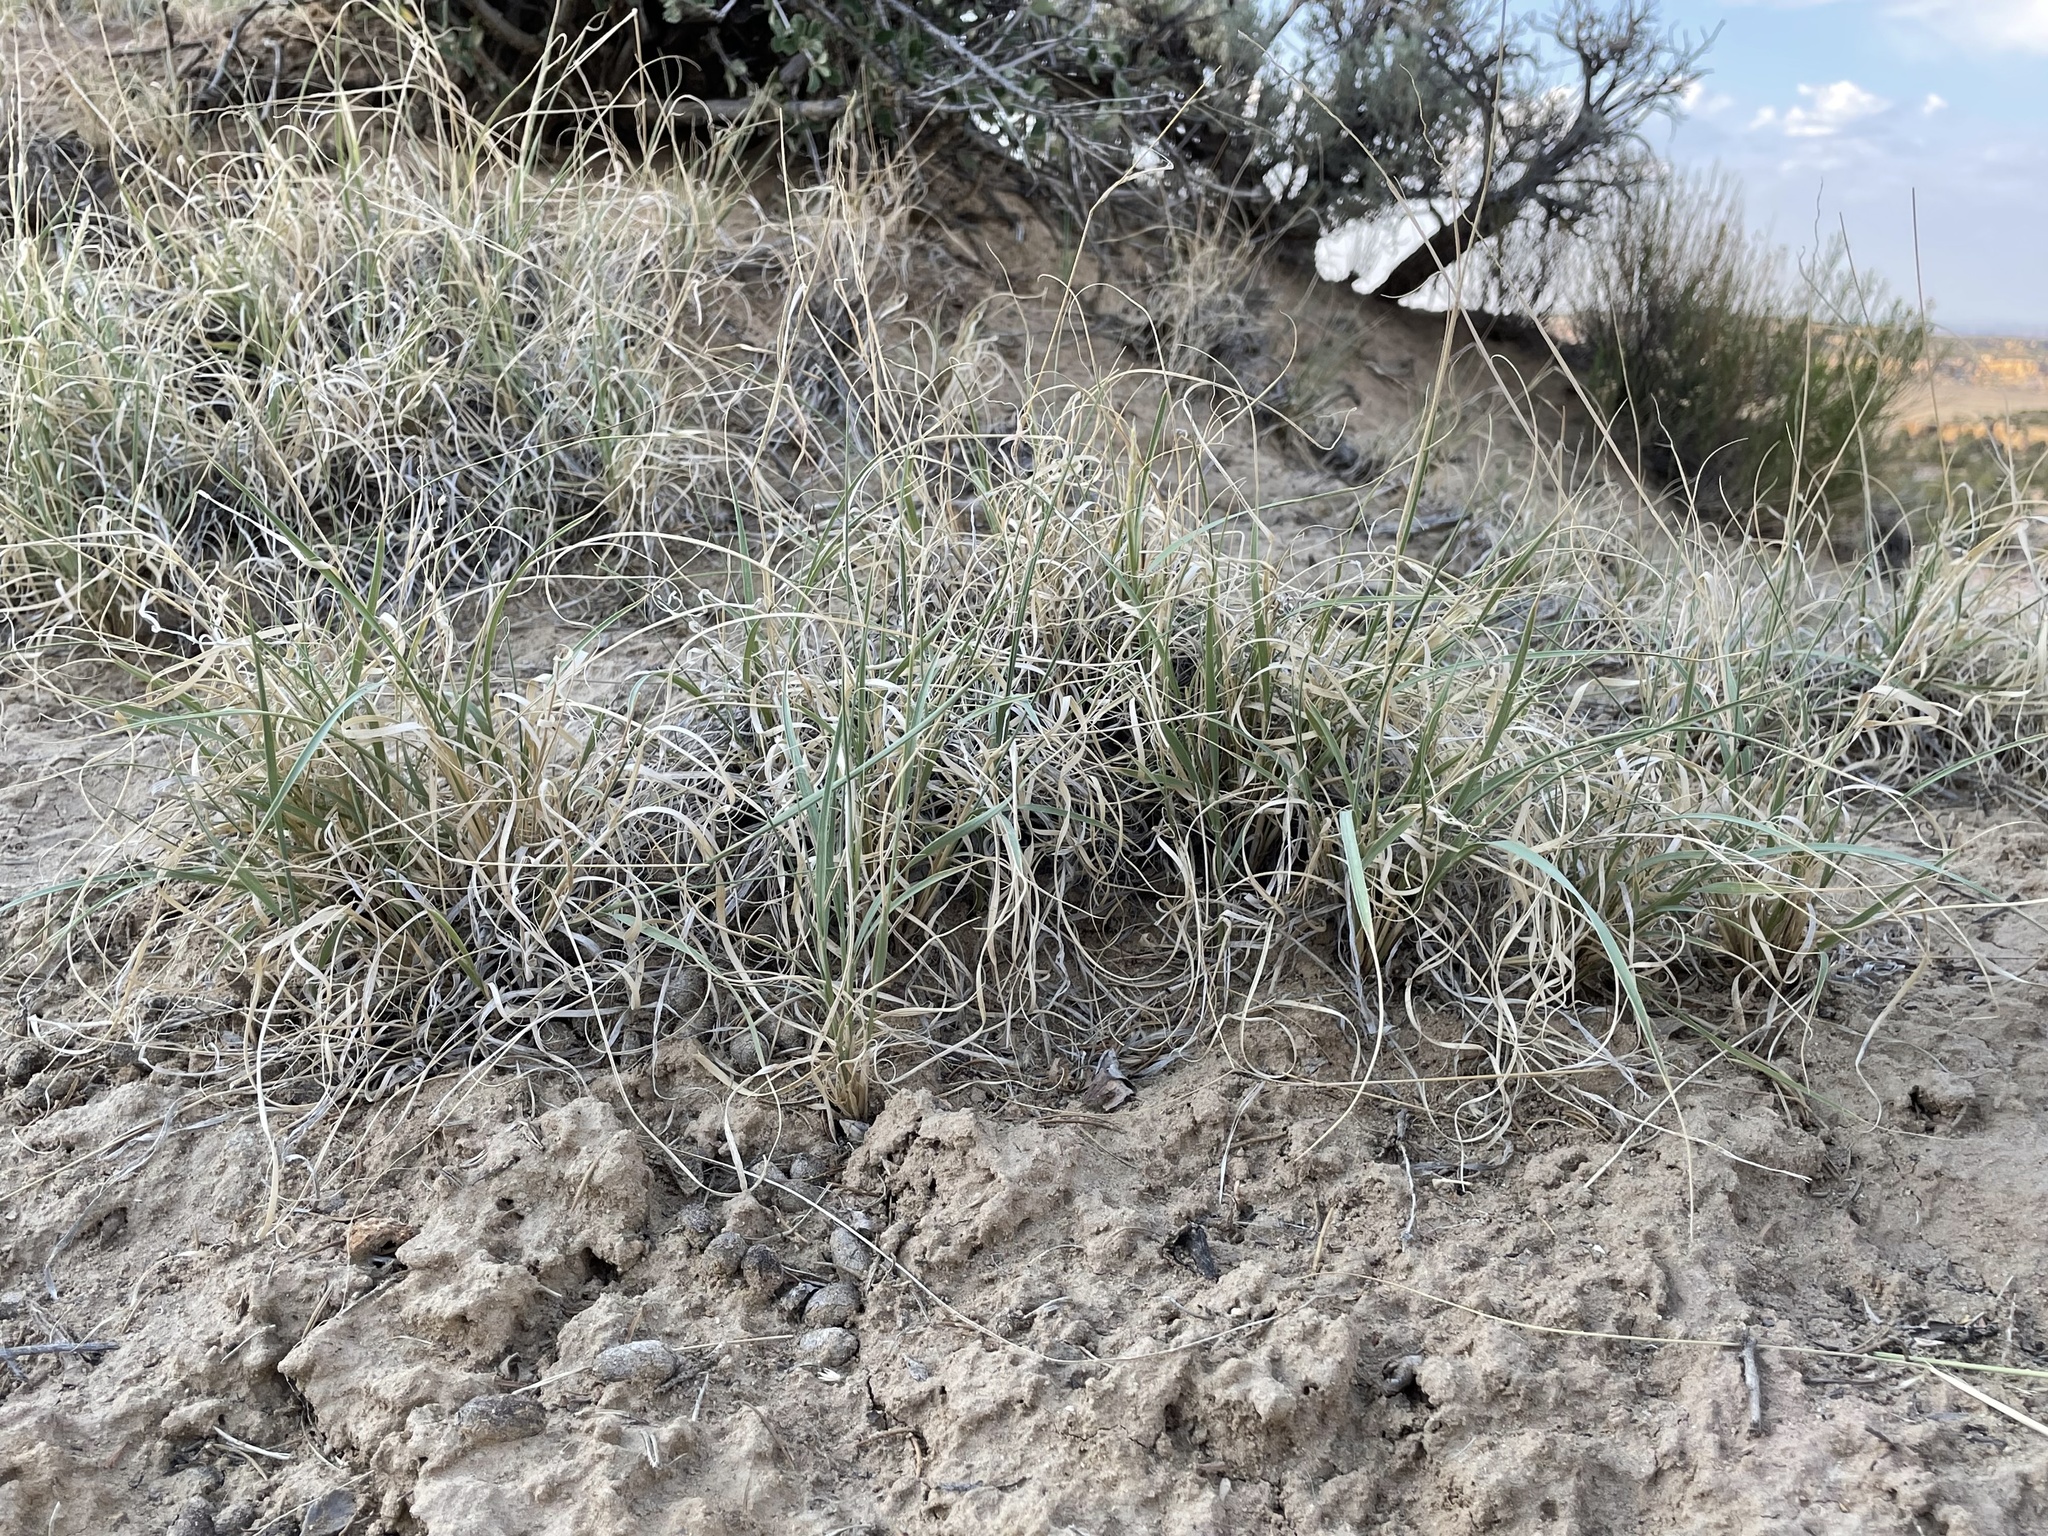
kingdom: Plantae
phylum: Tracheophyta
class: Liliopsida
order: Poales
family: Poaceae
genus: Hilaria
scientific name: Hilaria jamesii
